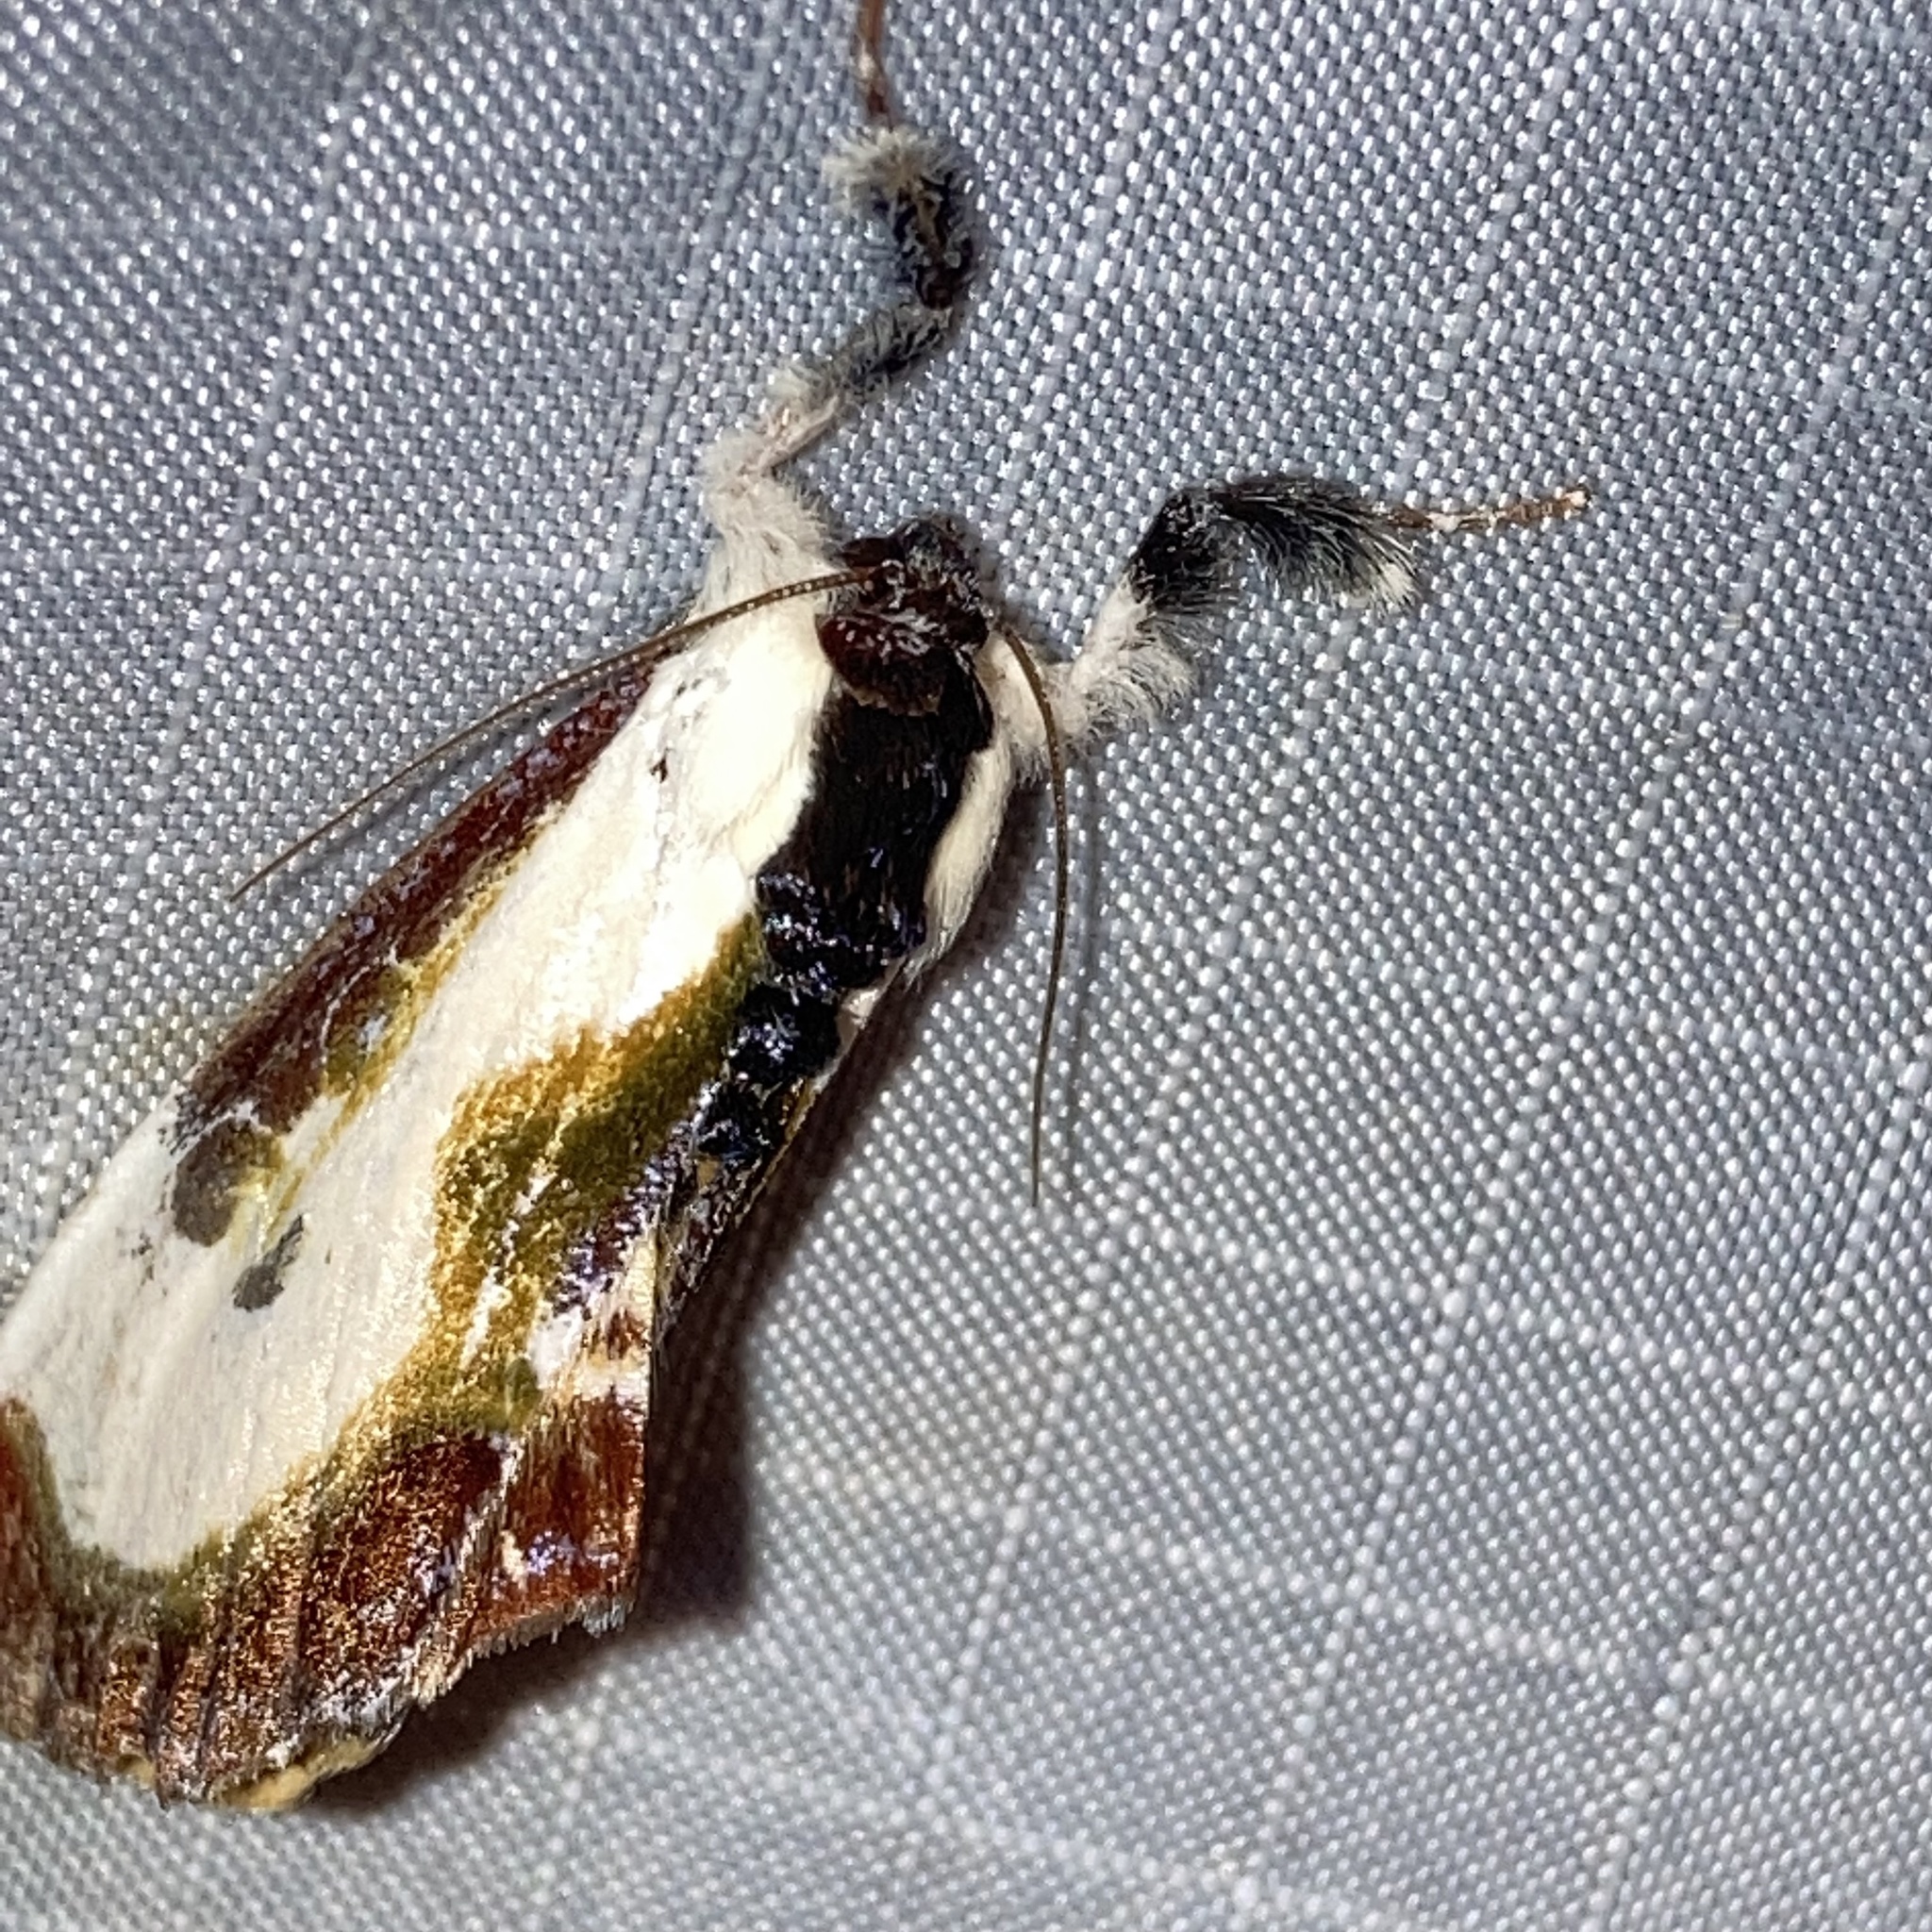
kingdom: Animalia
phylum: Arthropoda
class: Insecta
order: Lepidoptera
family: Noctuidae
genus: Eudryas
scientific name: Eudryas grata
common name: Beautiful wood-nymph
